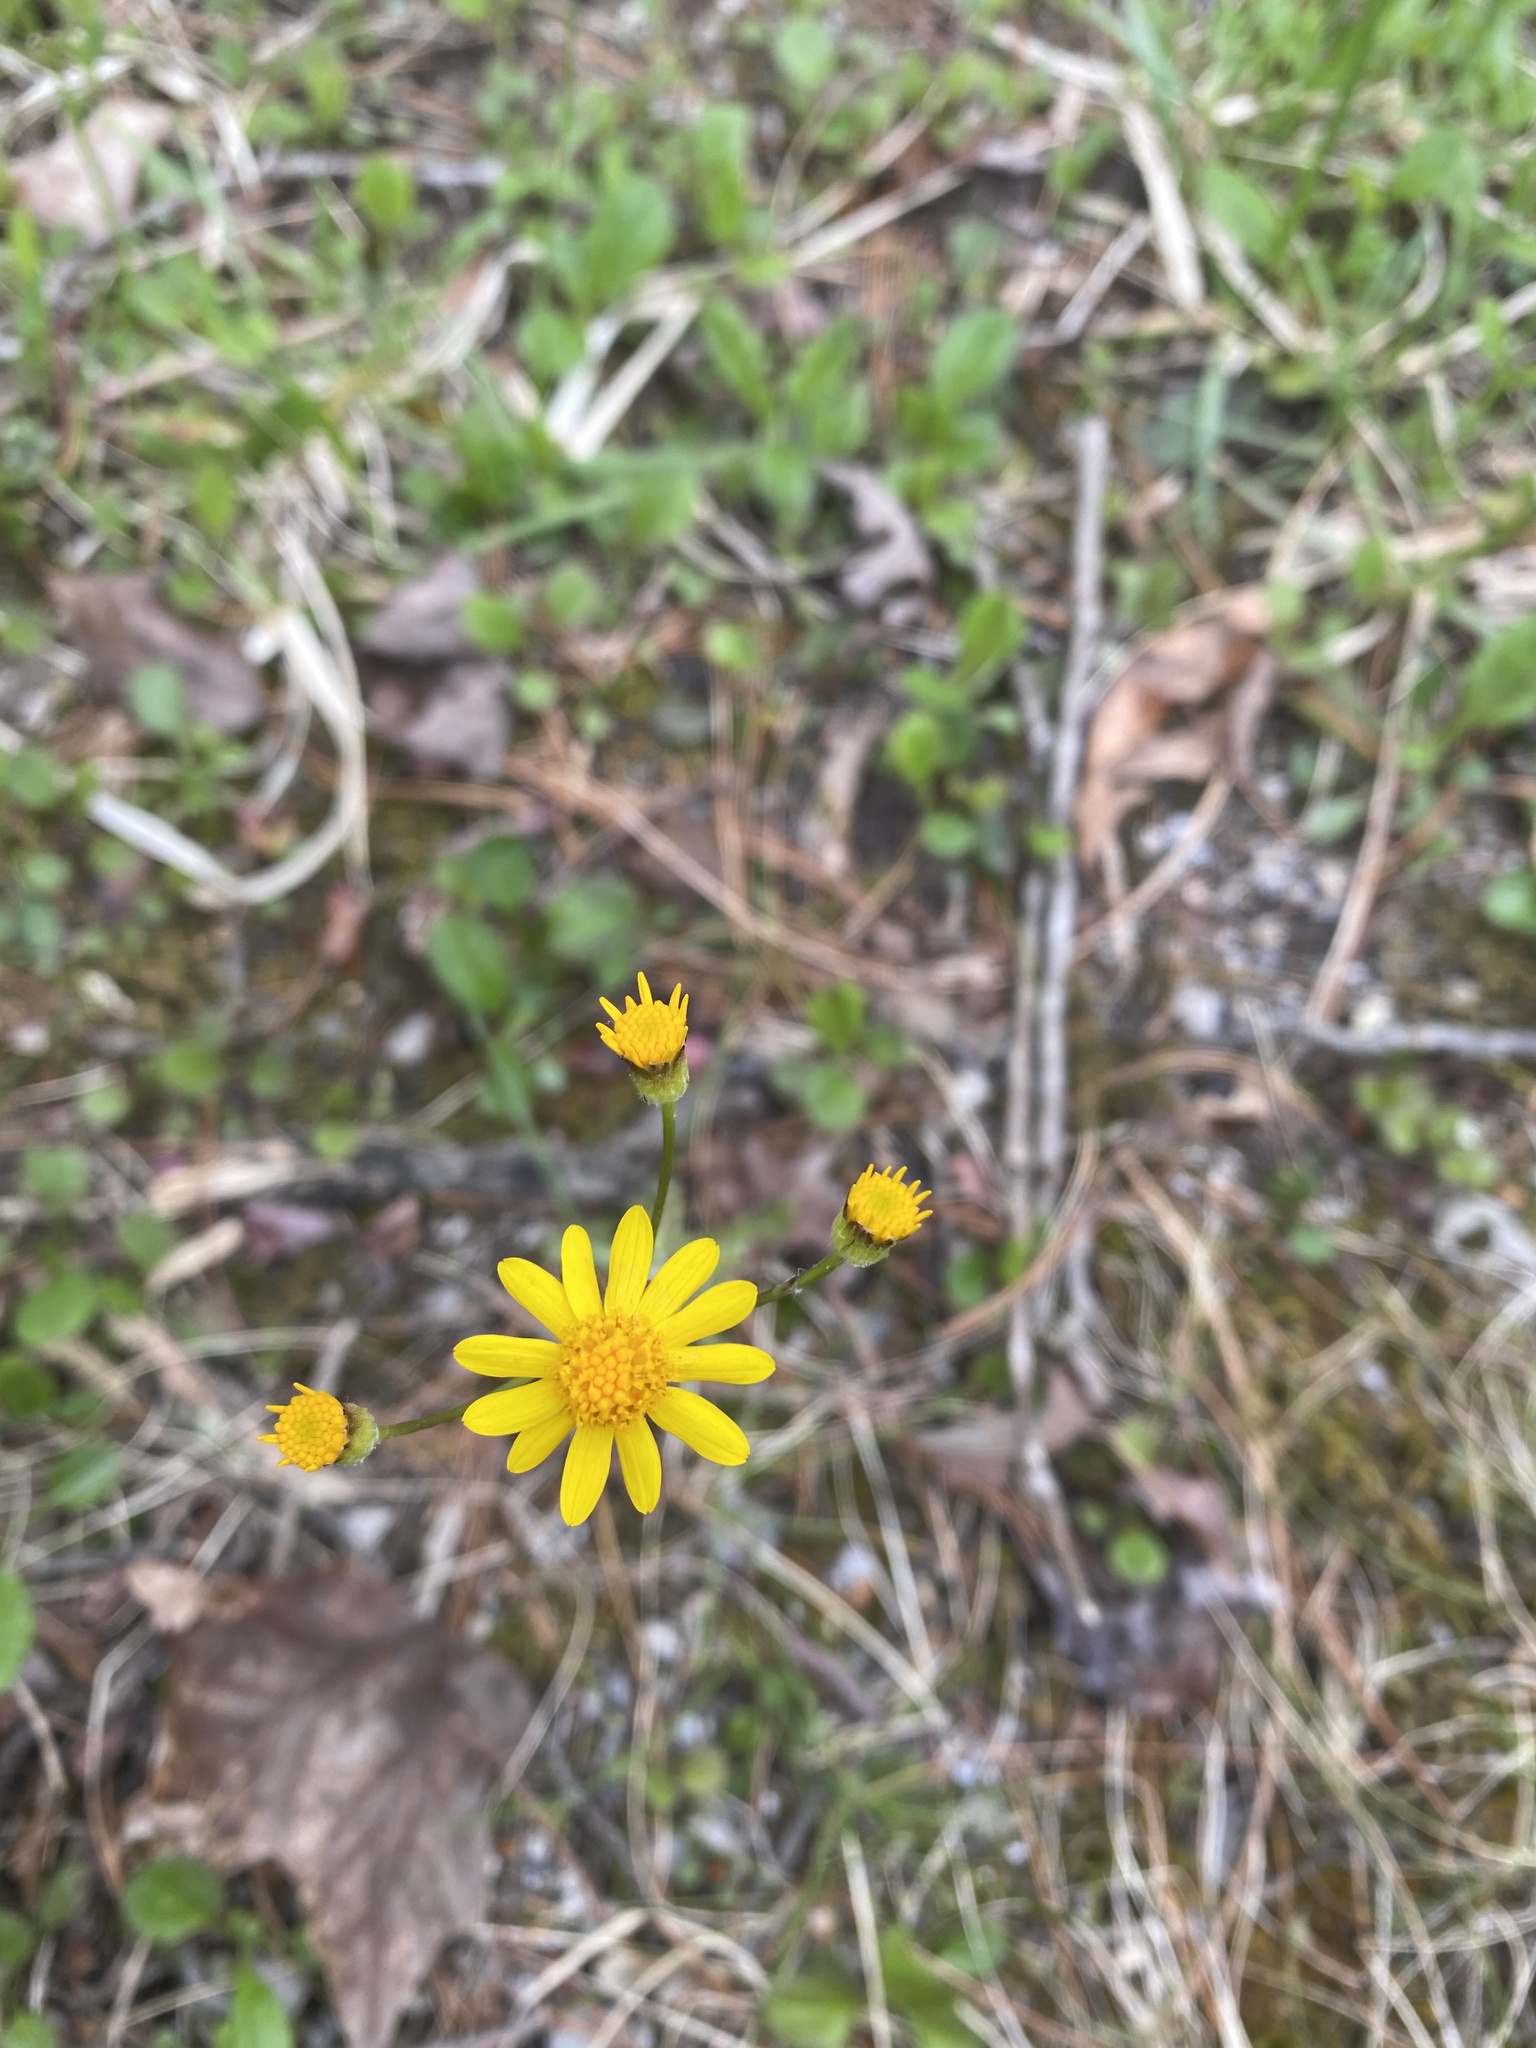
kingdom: Plantae
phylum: Tracheophyta
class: Magnoliopsida
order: Asterales
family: Asteraceae
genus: Packera
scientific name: Packera aurea
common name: Golden groundsel
